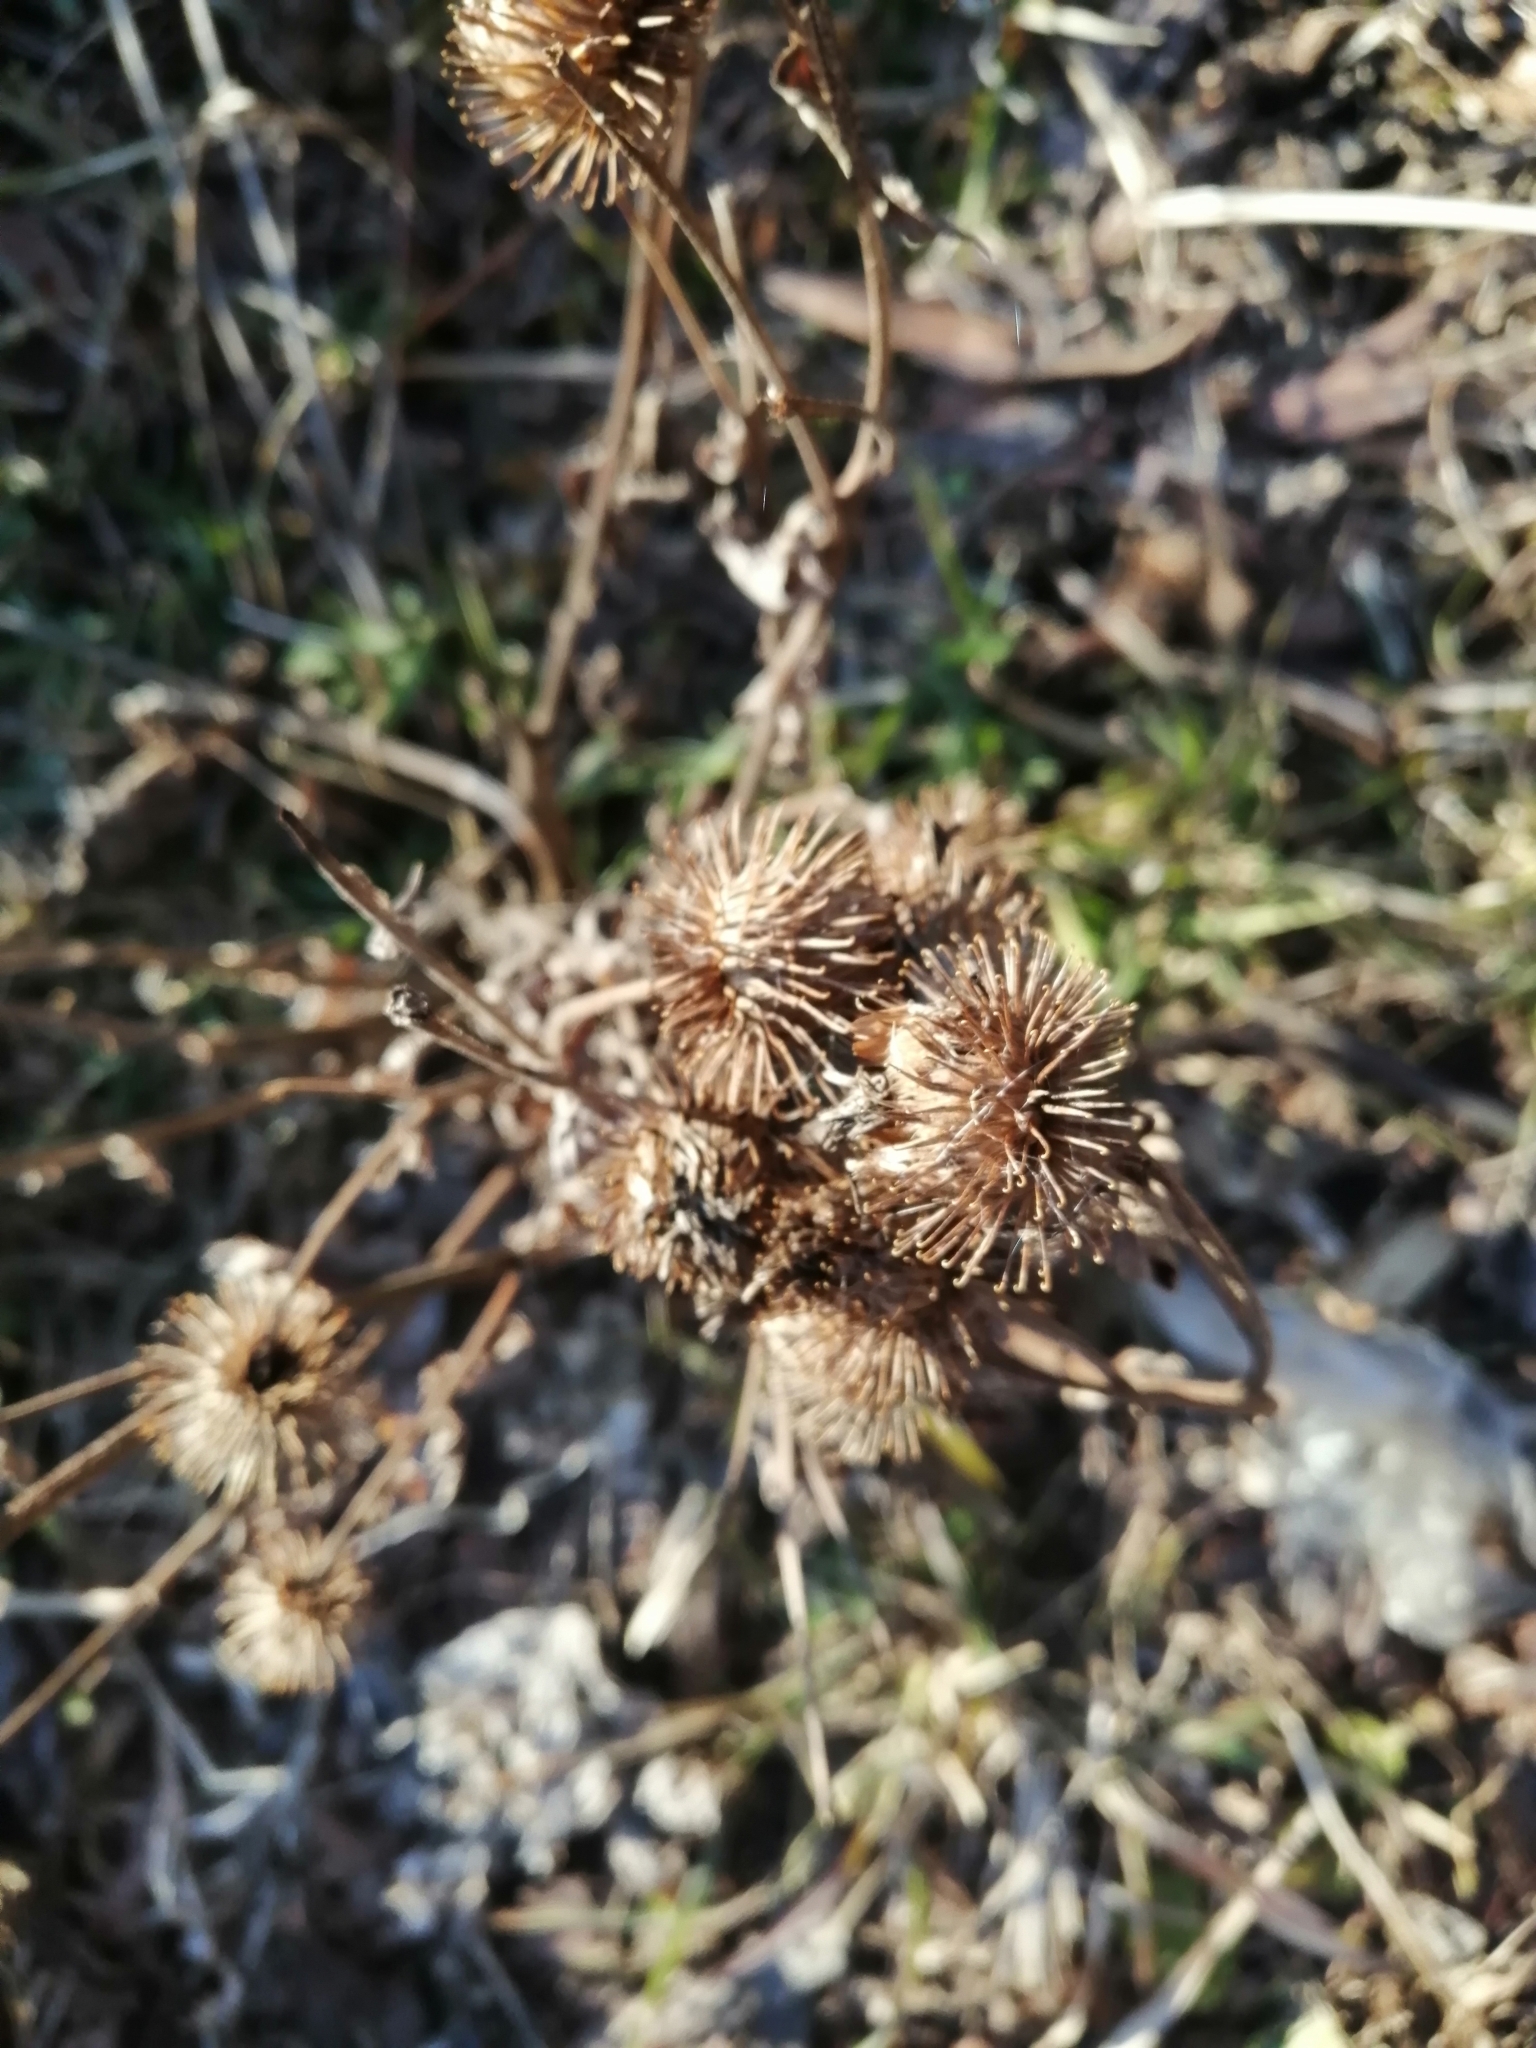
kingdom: Plantae
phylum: Tracheophyta
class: Magnoliopsida
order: Asterales
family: Asteraceae
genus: Arctium
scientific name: Arctium tomentosum
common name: Woolly burdock
